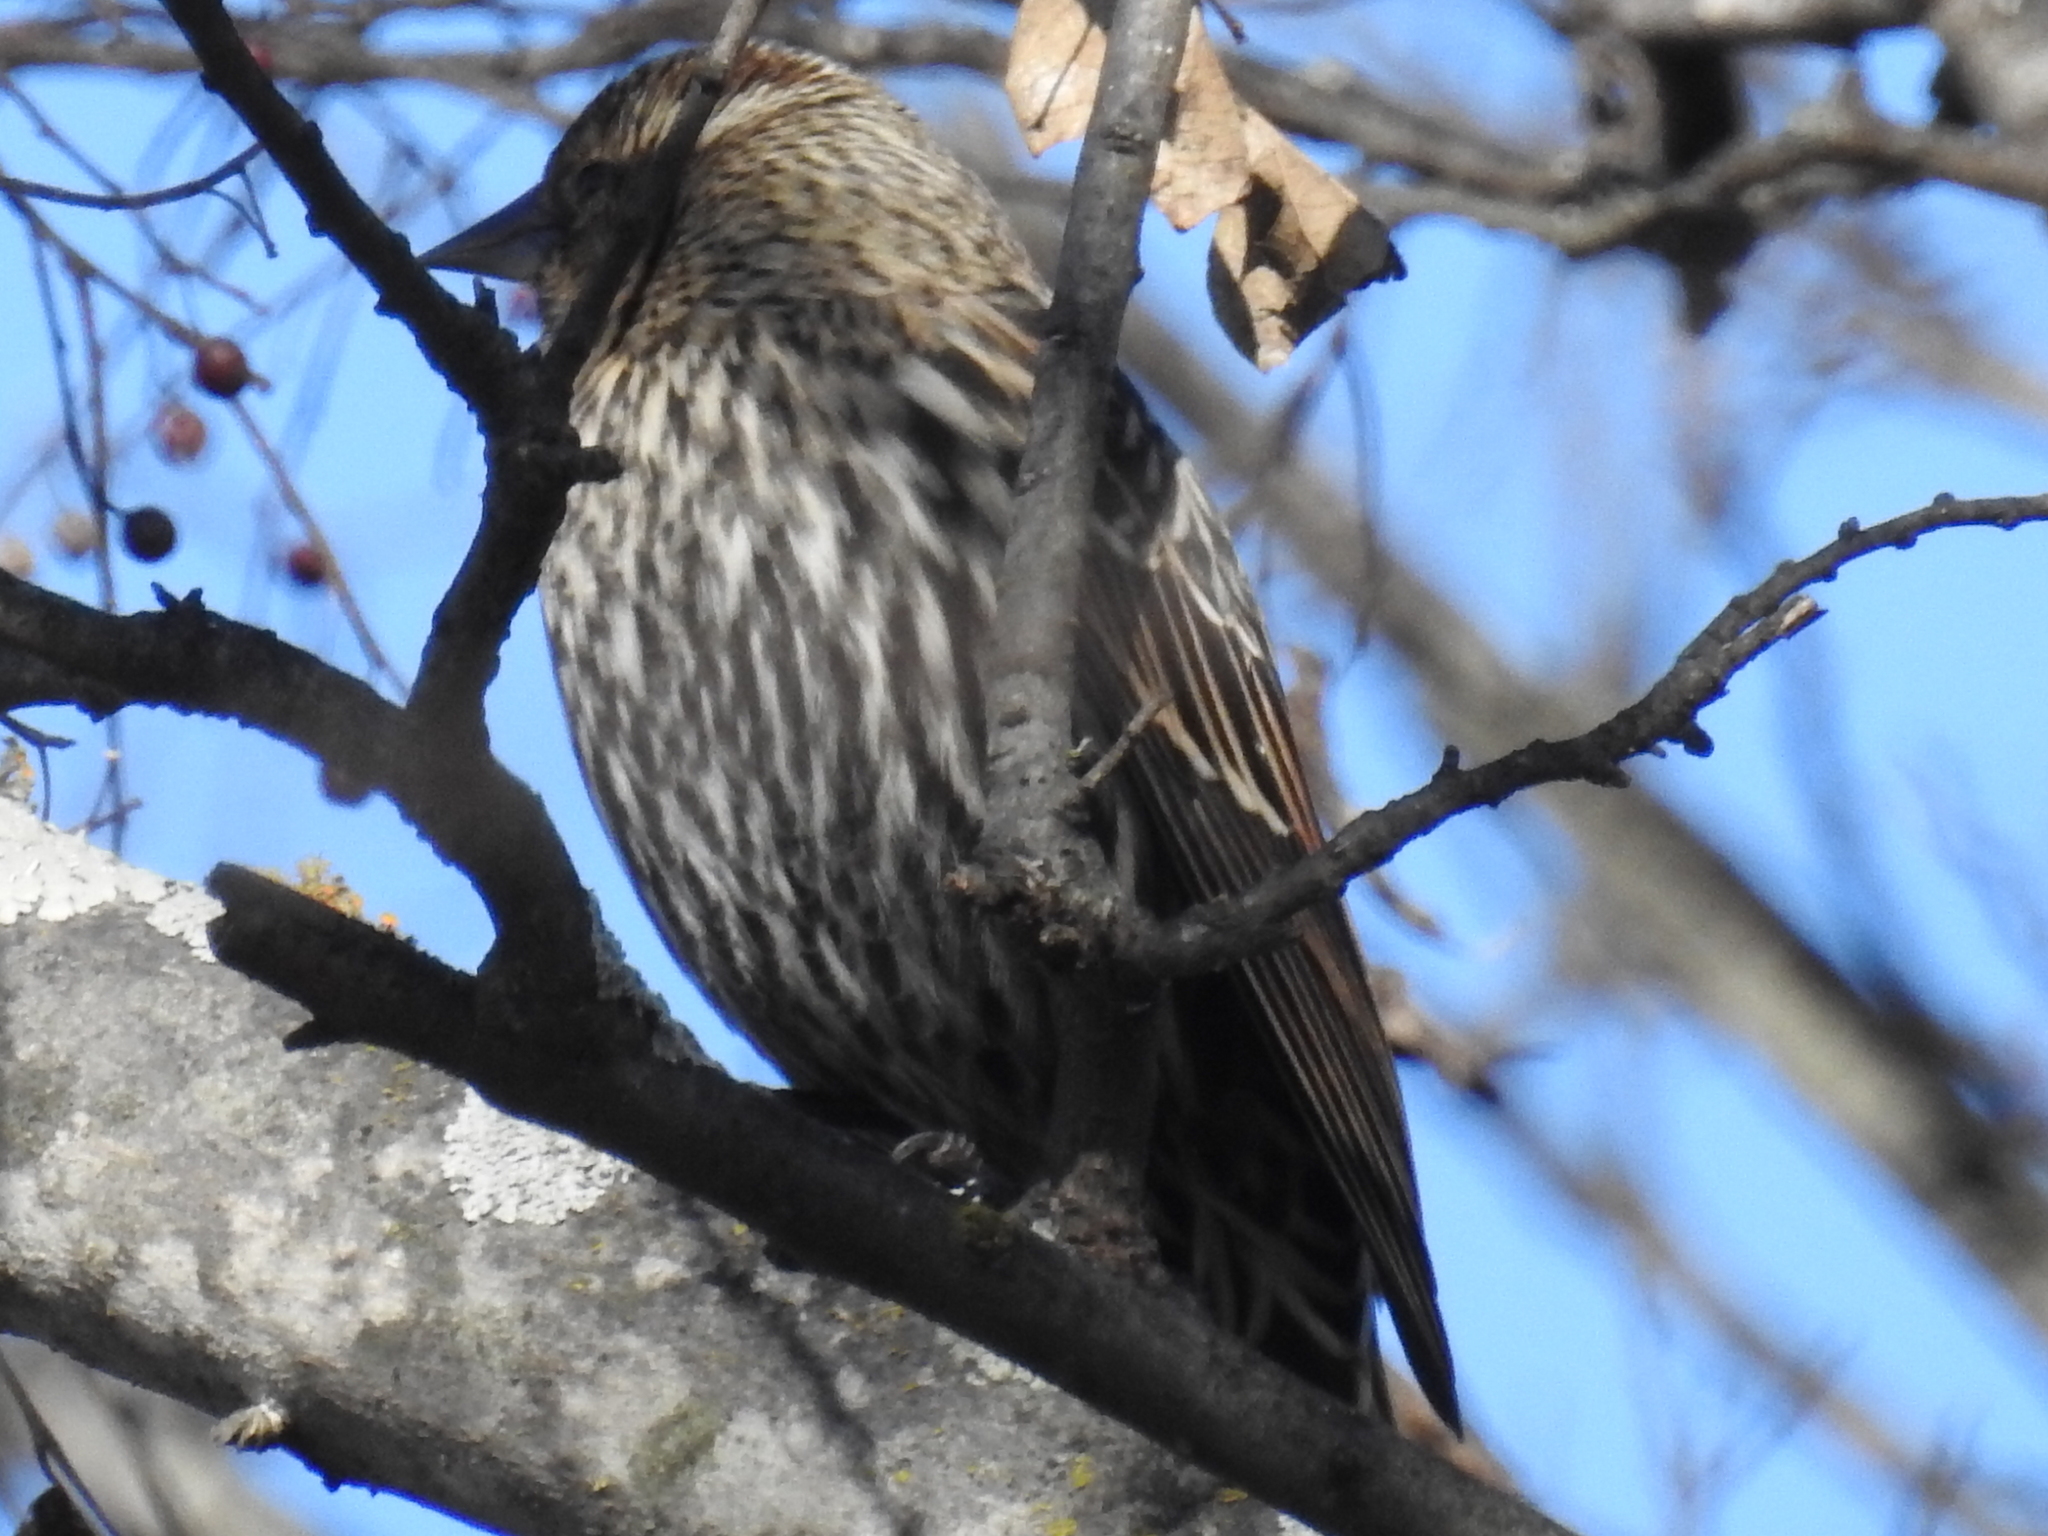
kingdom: Animalia
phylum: Chordata
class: Aves
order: Passeriformes
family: Icteridae
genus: Agelaius
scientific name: Agelaius phoeniceus
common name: Red-winged blackbird
